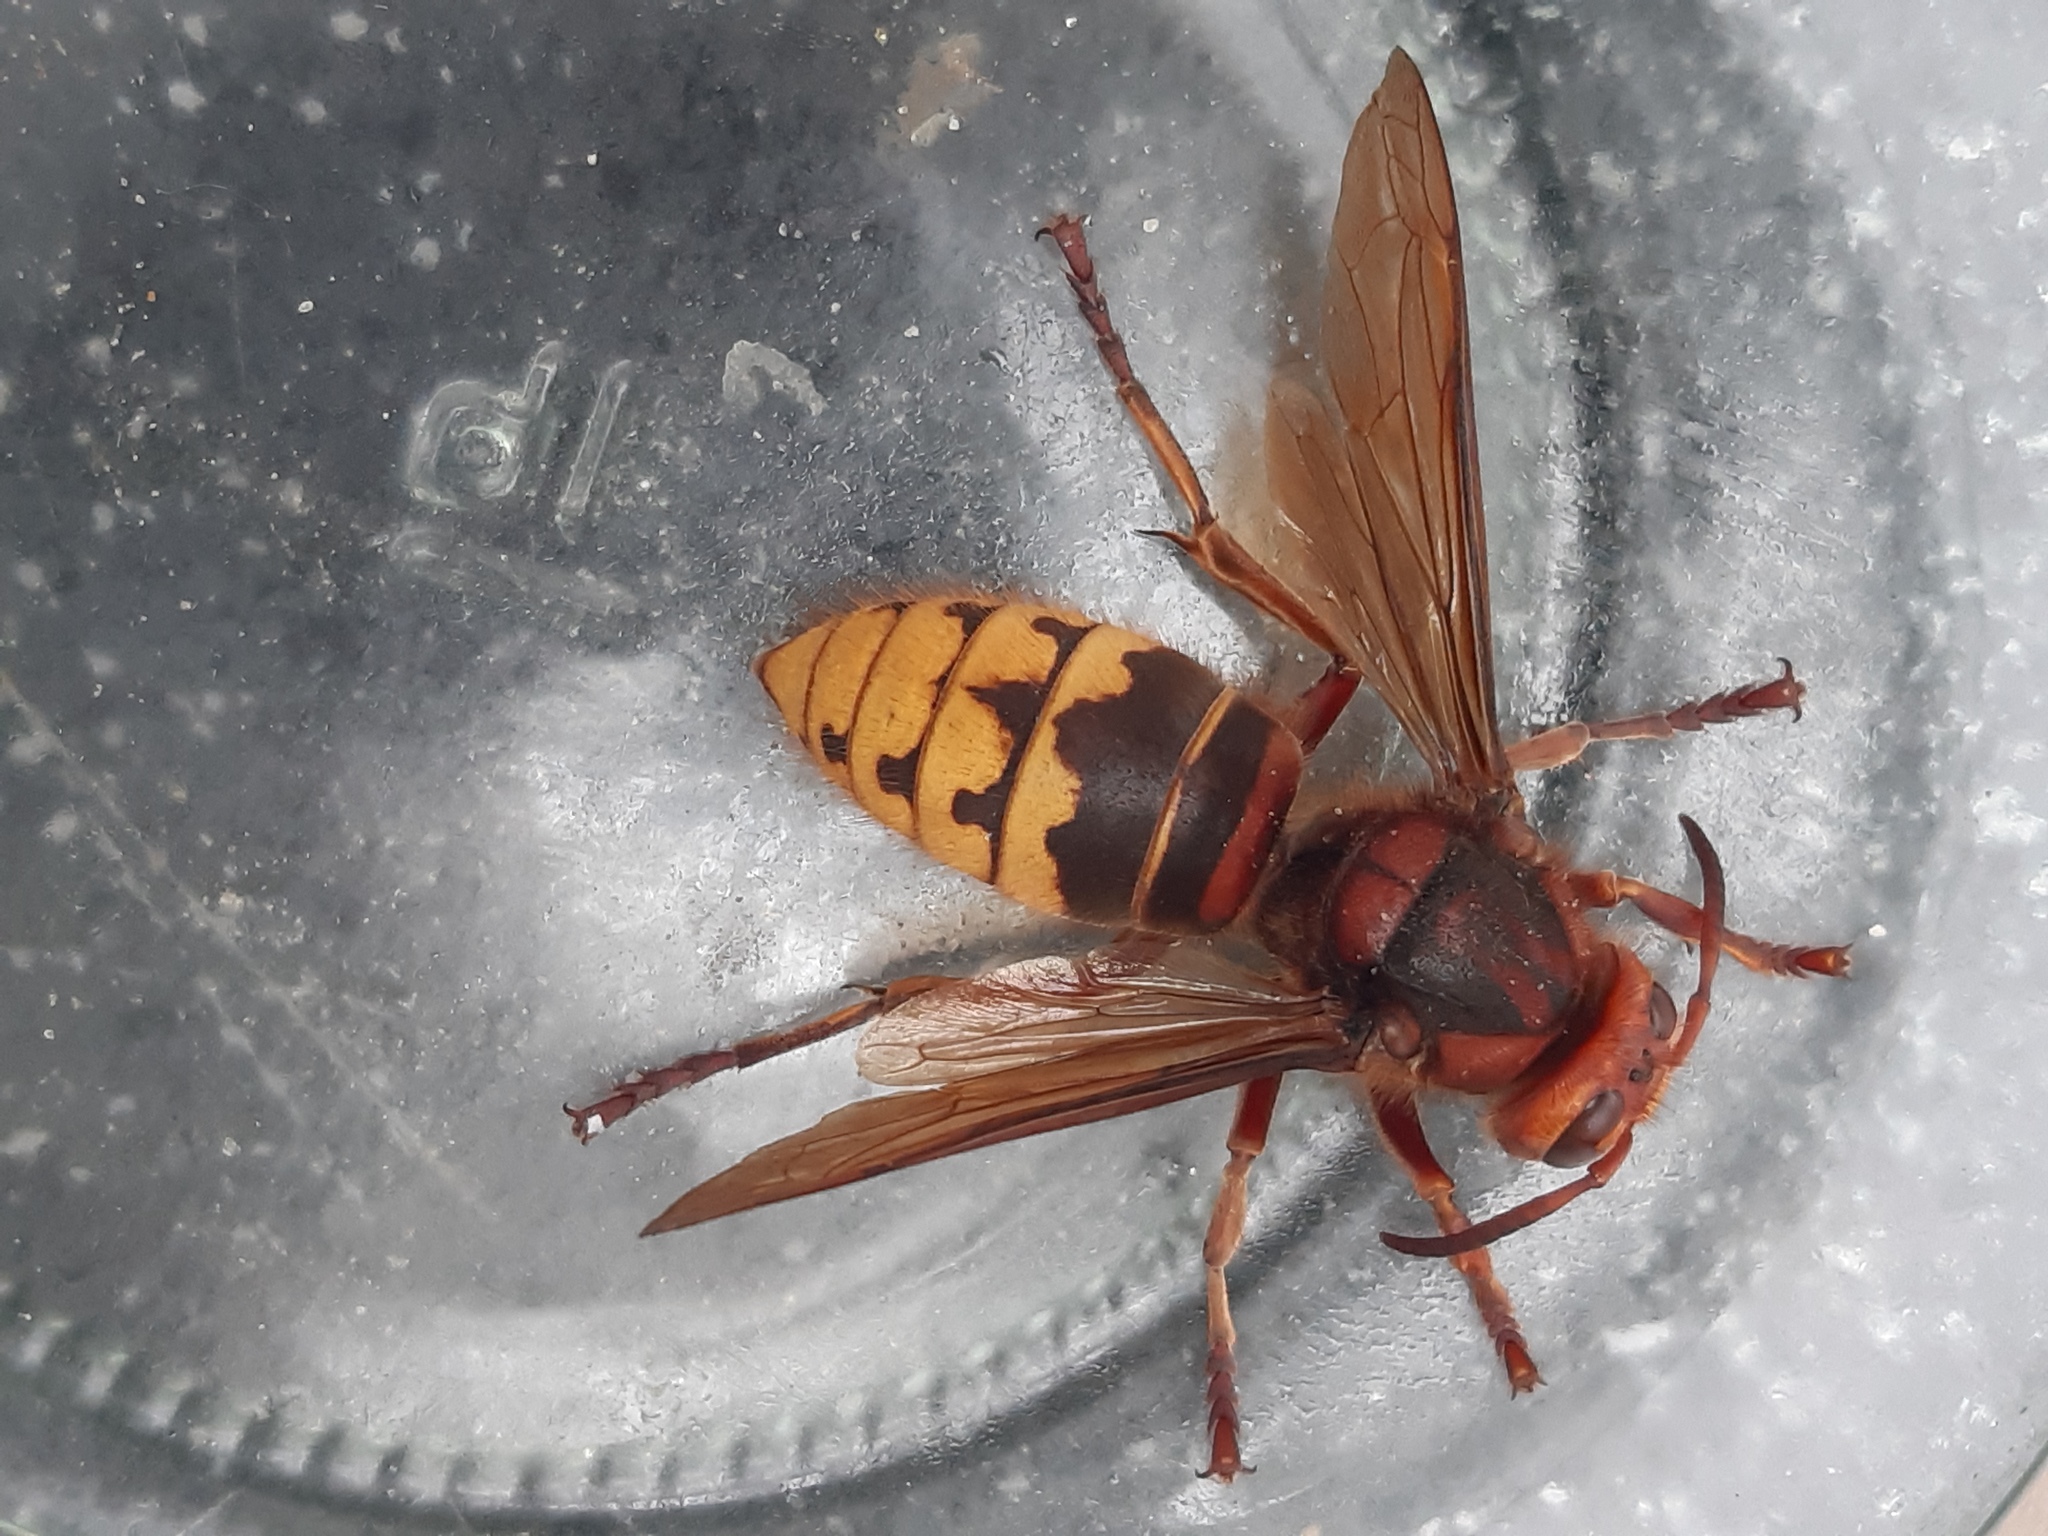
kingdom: Animalia
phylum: Arthropoda
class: Insecta
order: Hymenoptera
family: Vespidae
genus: Vespa
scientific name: Vespa crabro
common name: Hornet
